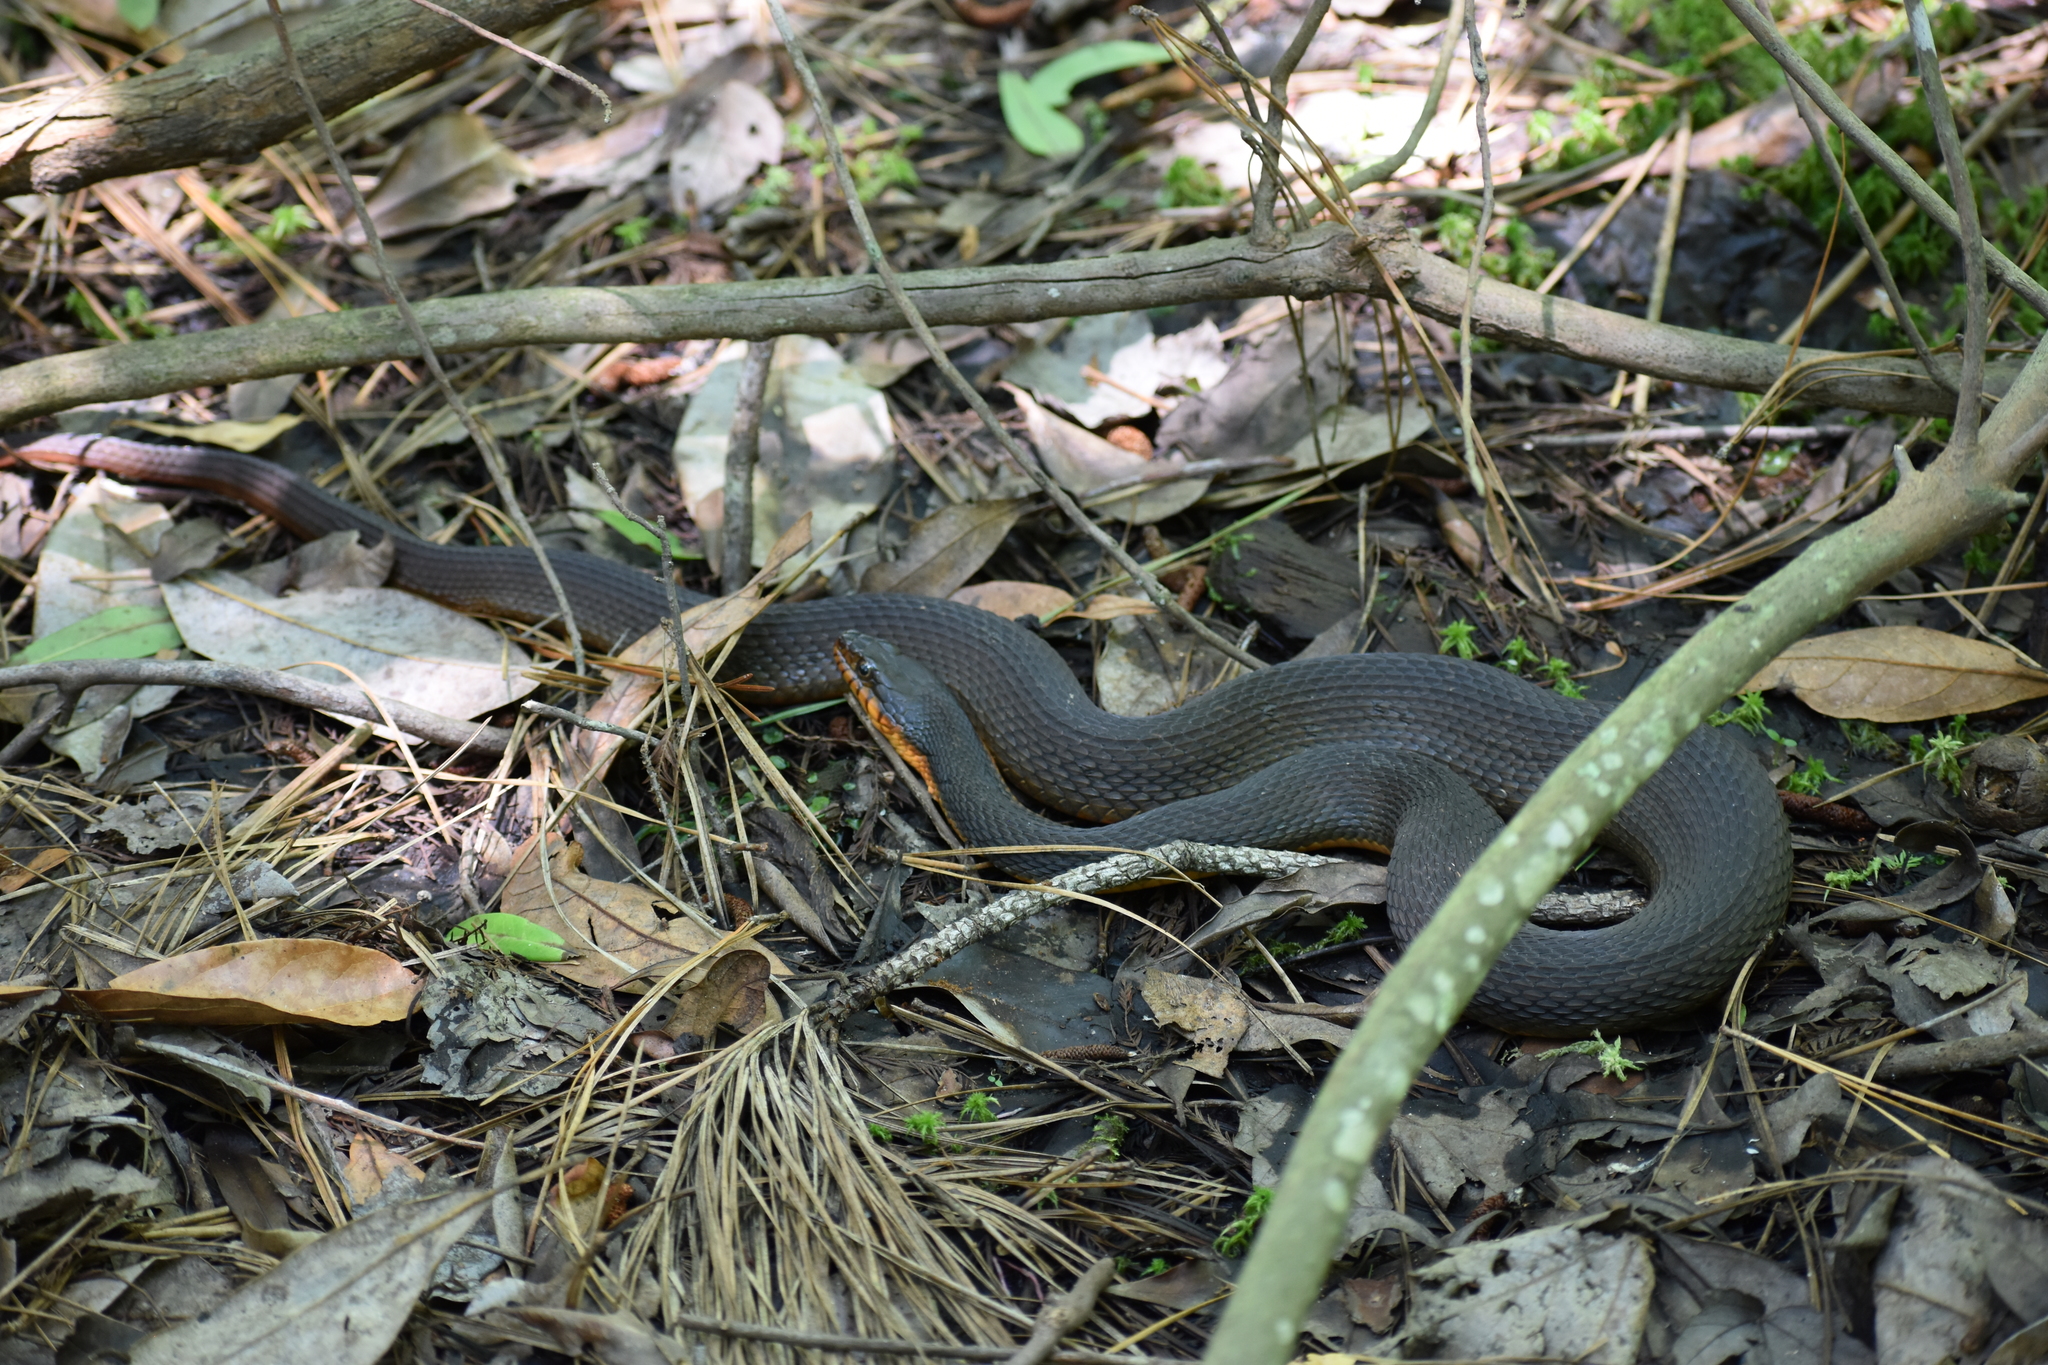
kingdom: Animalia
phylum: Chordata
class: Squamata
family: Colubridae
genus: Nerodia
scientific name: Nerodia erythrogaster
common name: Plainbelly water snake
